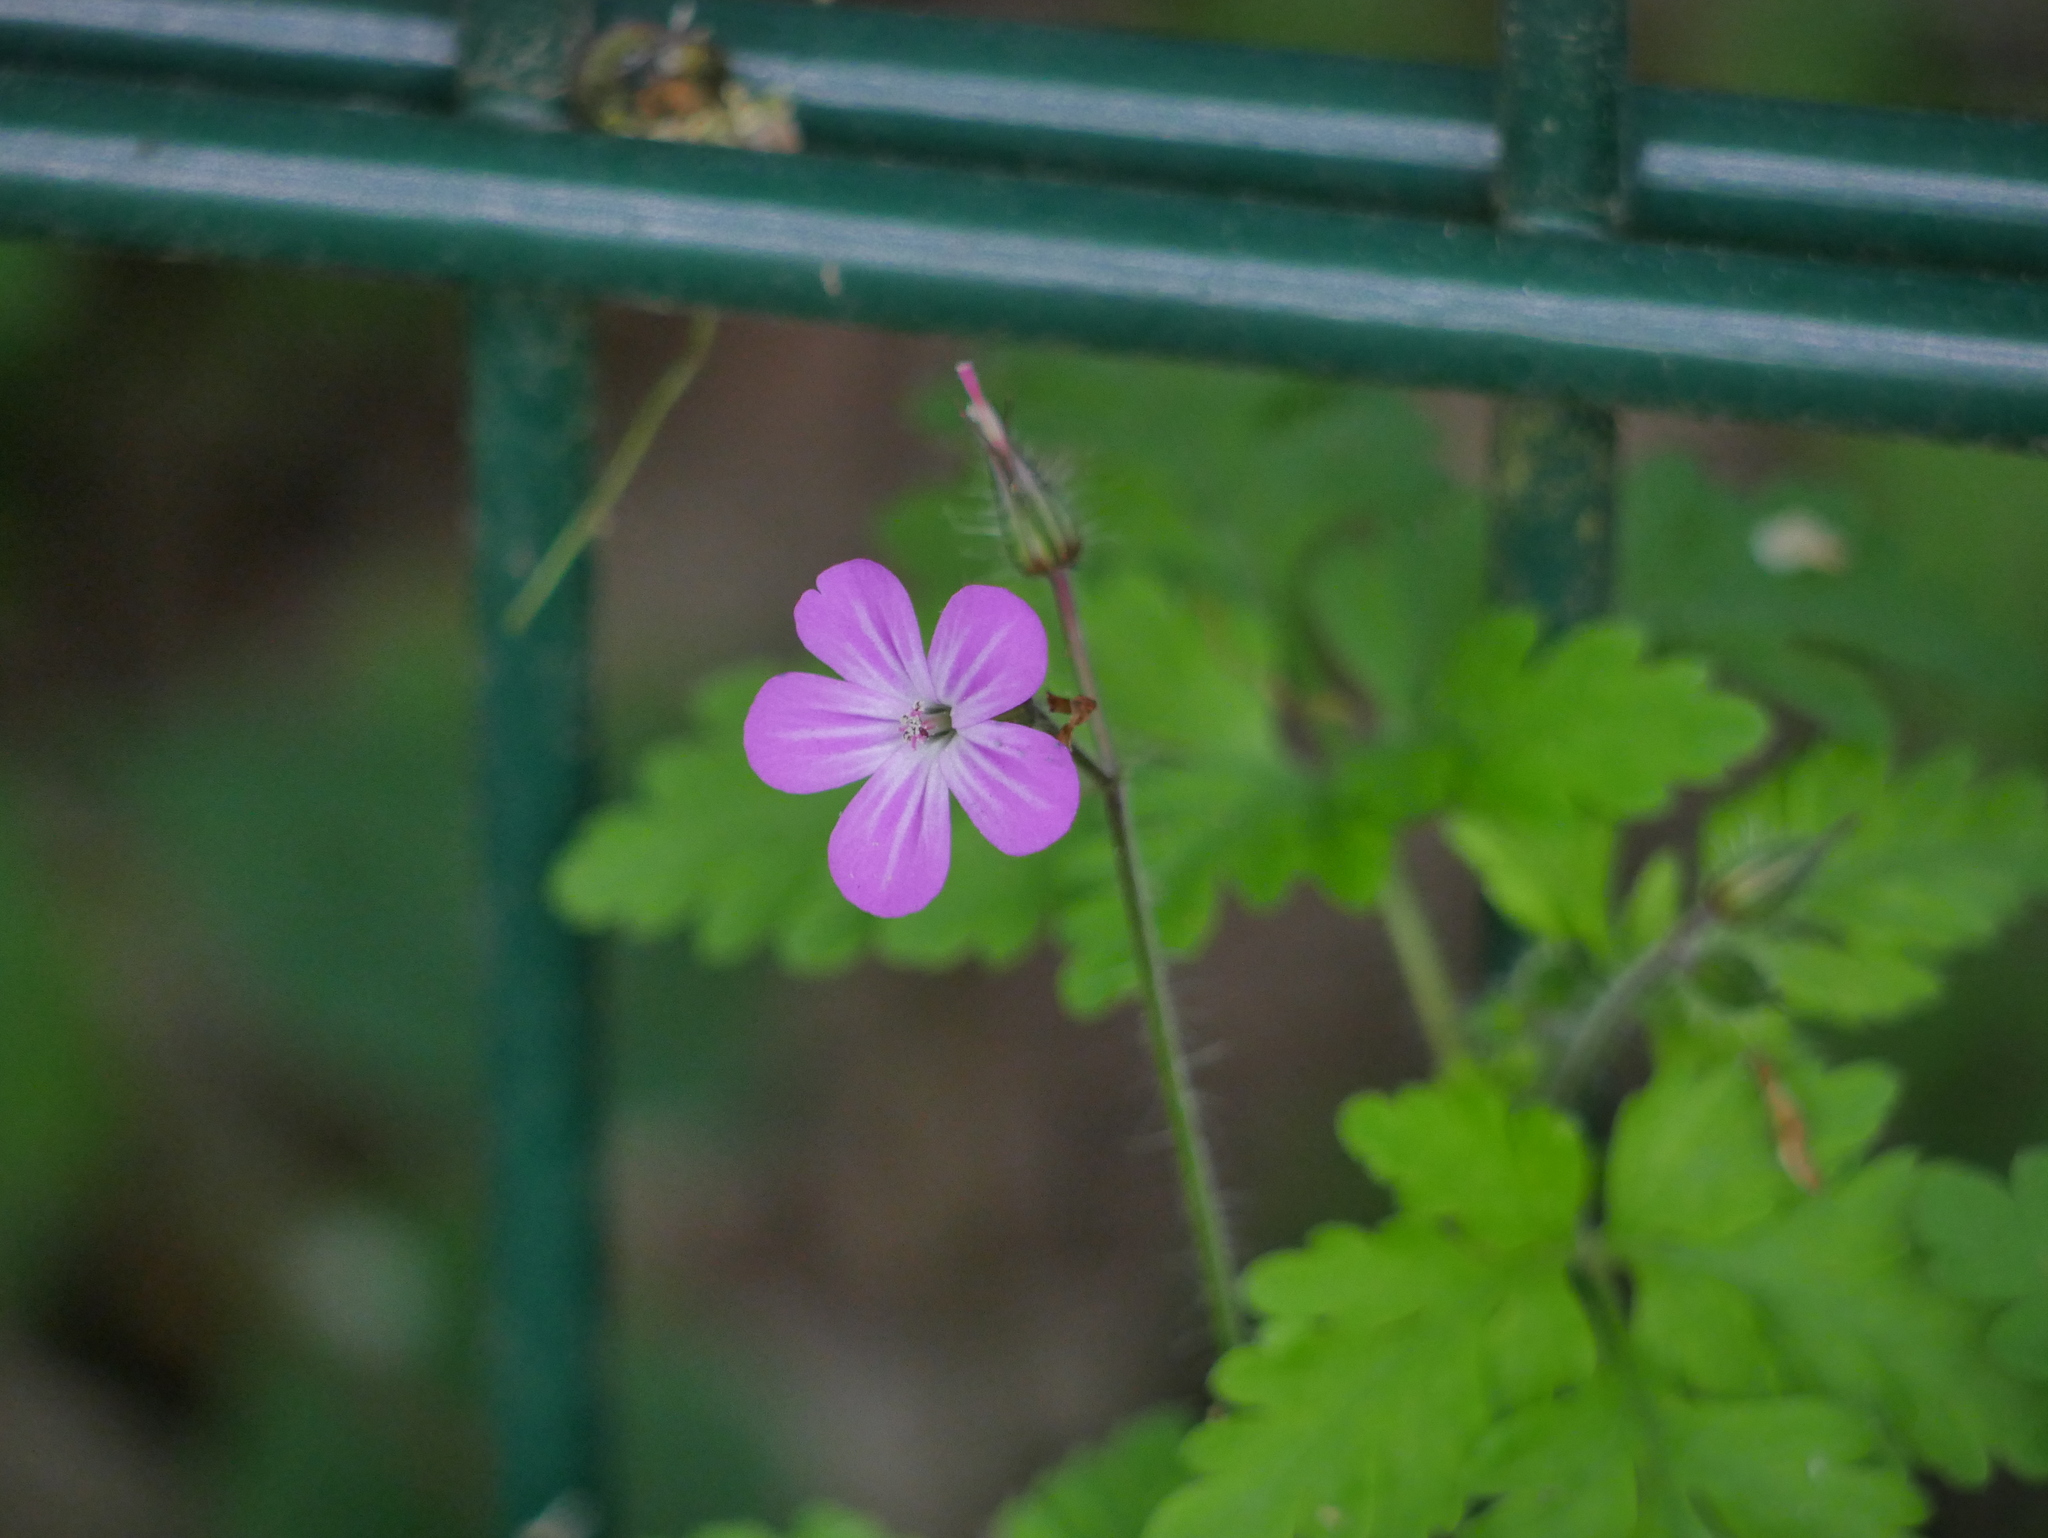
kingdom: Plantae
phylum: Tracheophyta
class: Magnoliopsida
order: Geraniales
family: Geraniaceae
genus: Geranium
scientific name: Geranium robertianum
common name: Herb-robert
